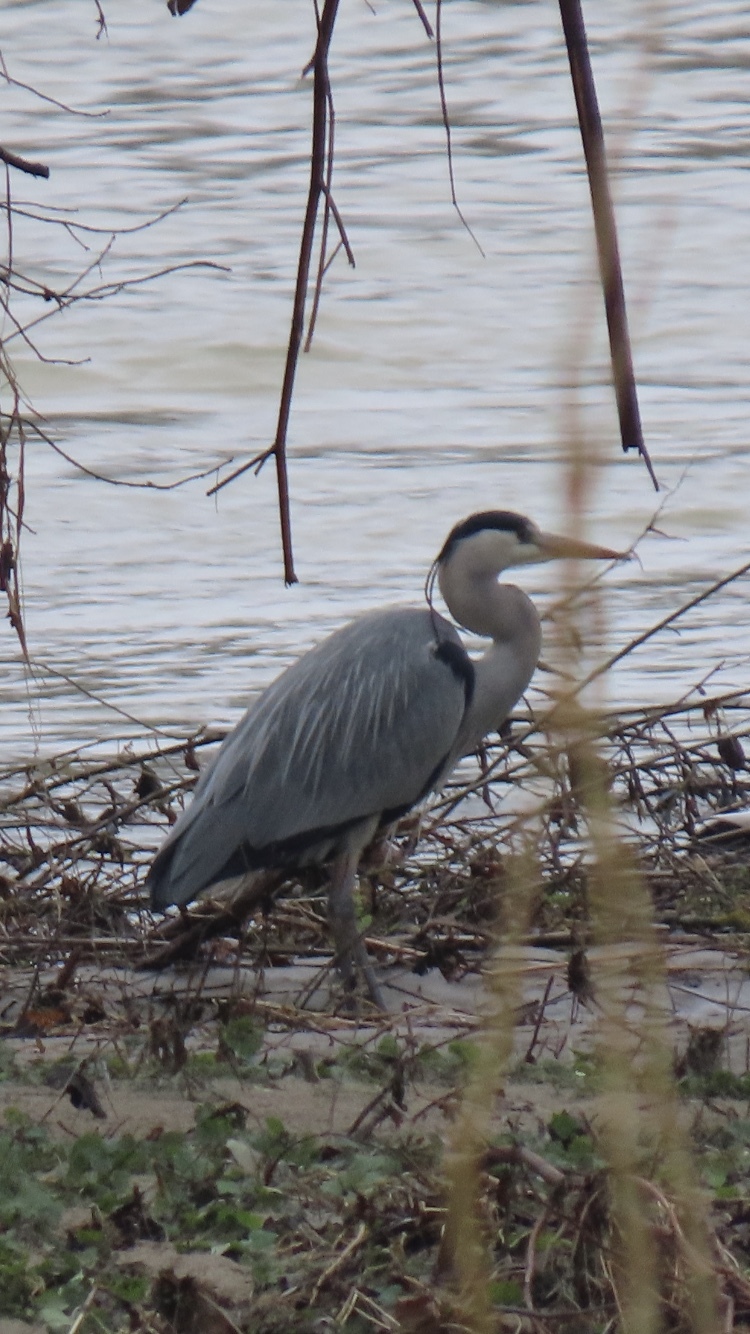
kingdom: Animalia
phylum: Chordata
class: Aves
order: Pelecaniformes
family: Ardeidae
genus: Ardea
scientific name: Ardea cinerea
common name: Grey heron
